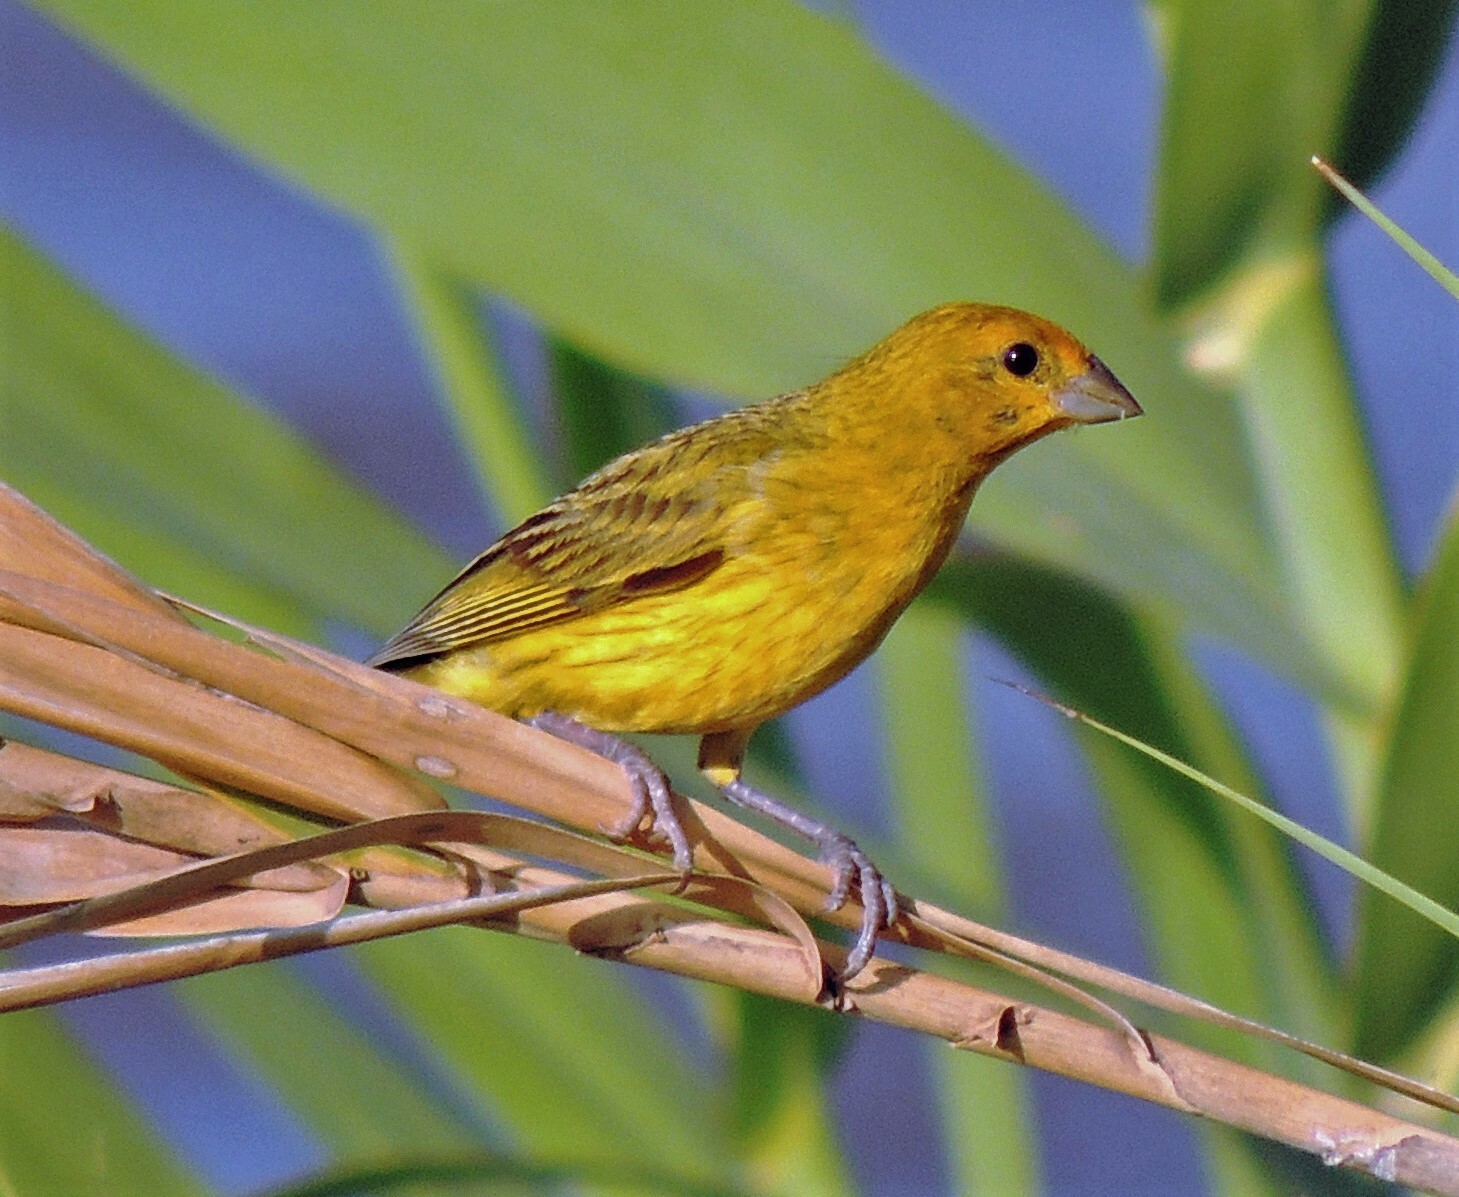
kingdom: Animalia
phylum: Chordata
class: Aves
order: Passeriformes
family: Thraupidae
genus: Sicalis
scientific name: Sicalis flaveola
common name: Saffron finch
